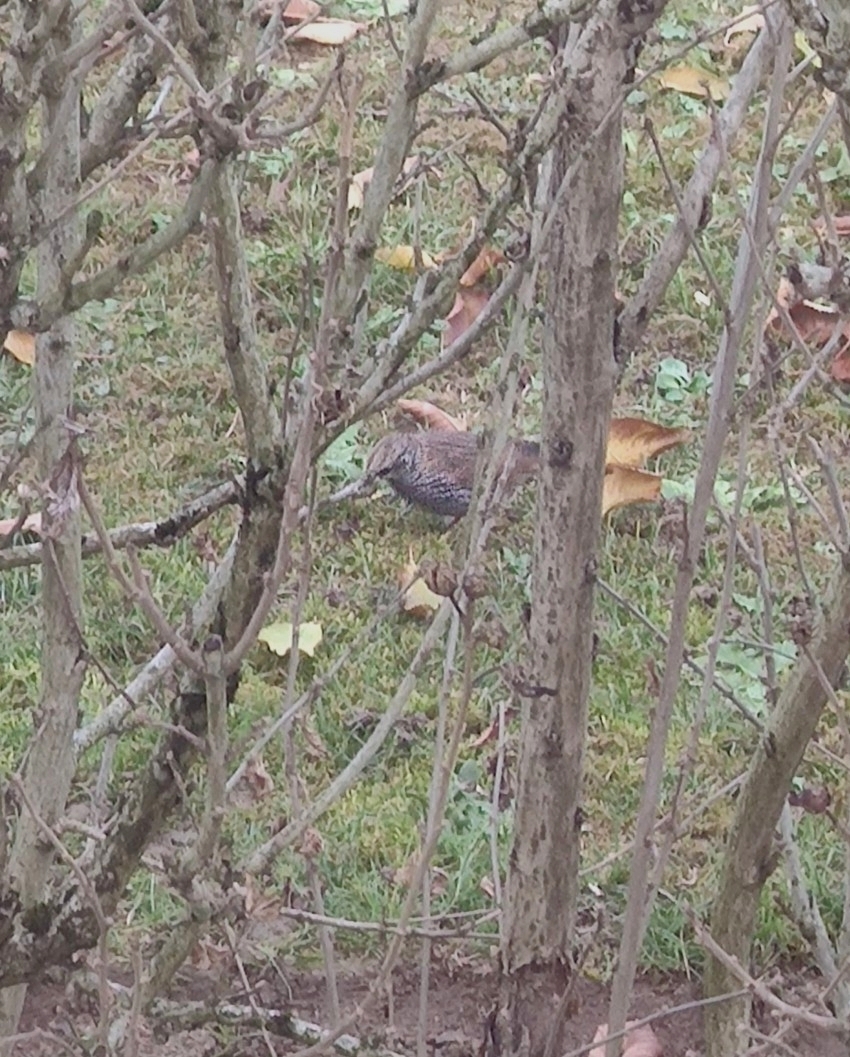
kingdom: Animalia
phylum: Chordata
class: Aves
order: Passeriformes
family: Sturnidae
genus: Sturnus
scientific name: Sturnus vulgaris
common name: Common starling
